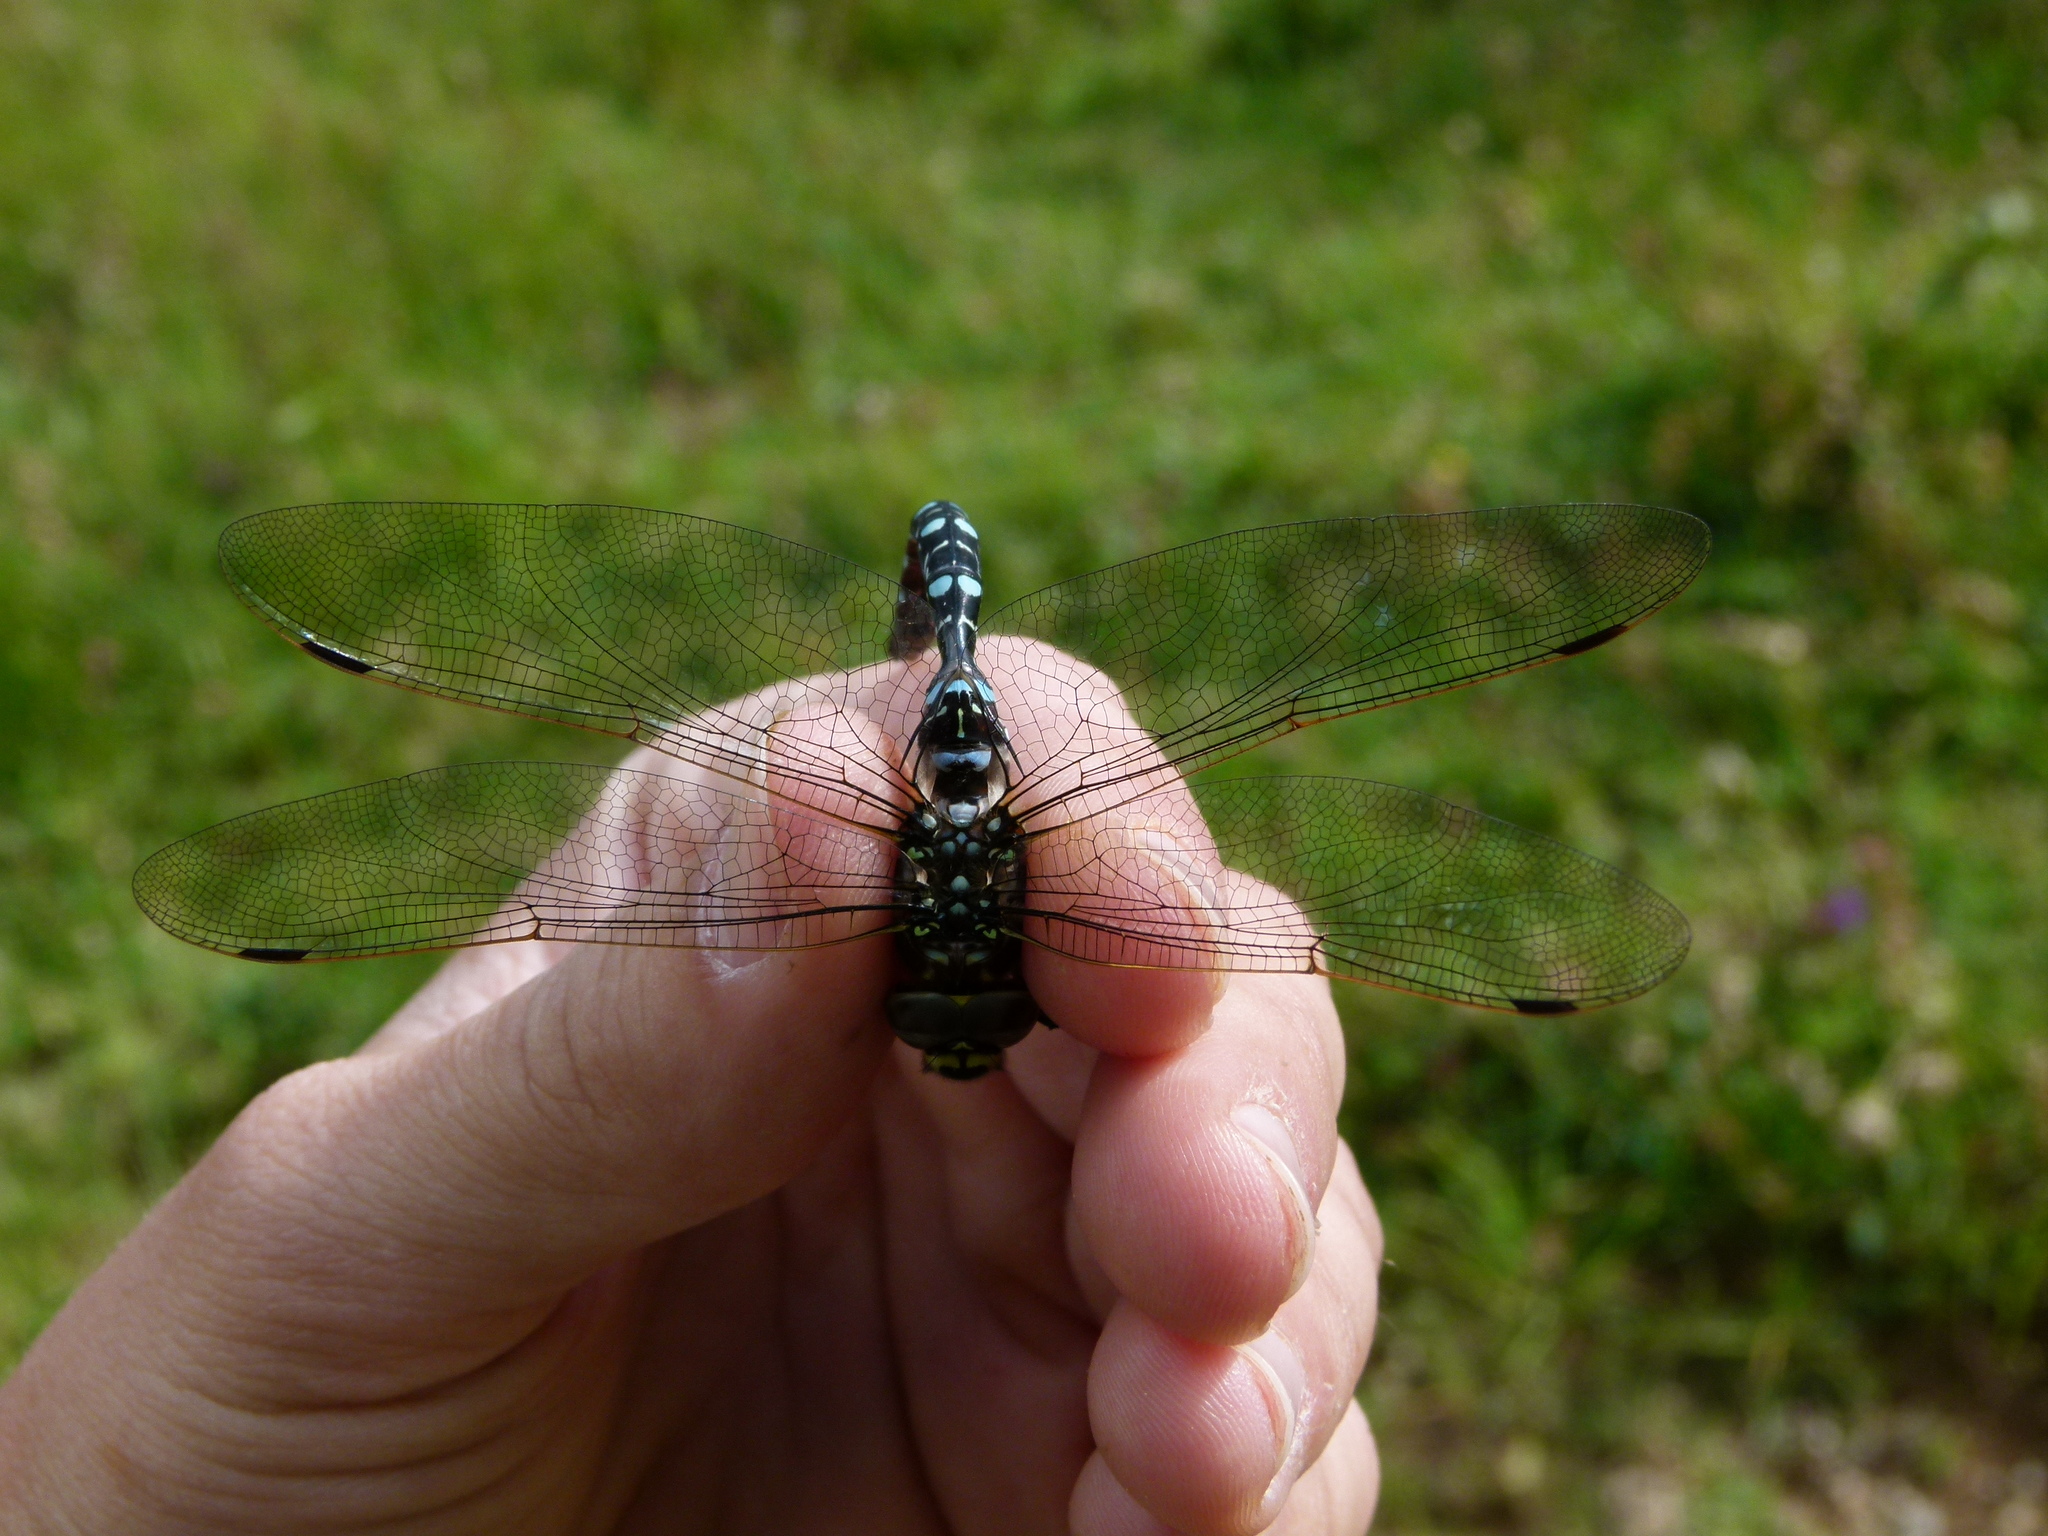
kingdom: Animalia
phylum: Arthropoda
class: Insecta
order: Odonata
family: Aeshnidae
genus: Aeshna
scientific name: Aeshna juncea
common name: Moorland hawker
